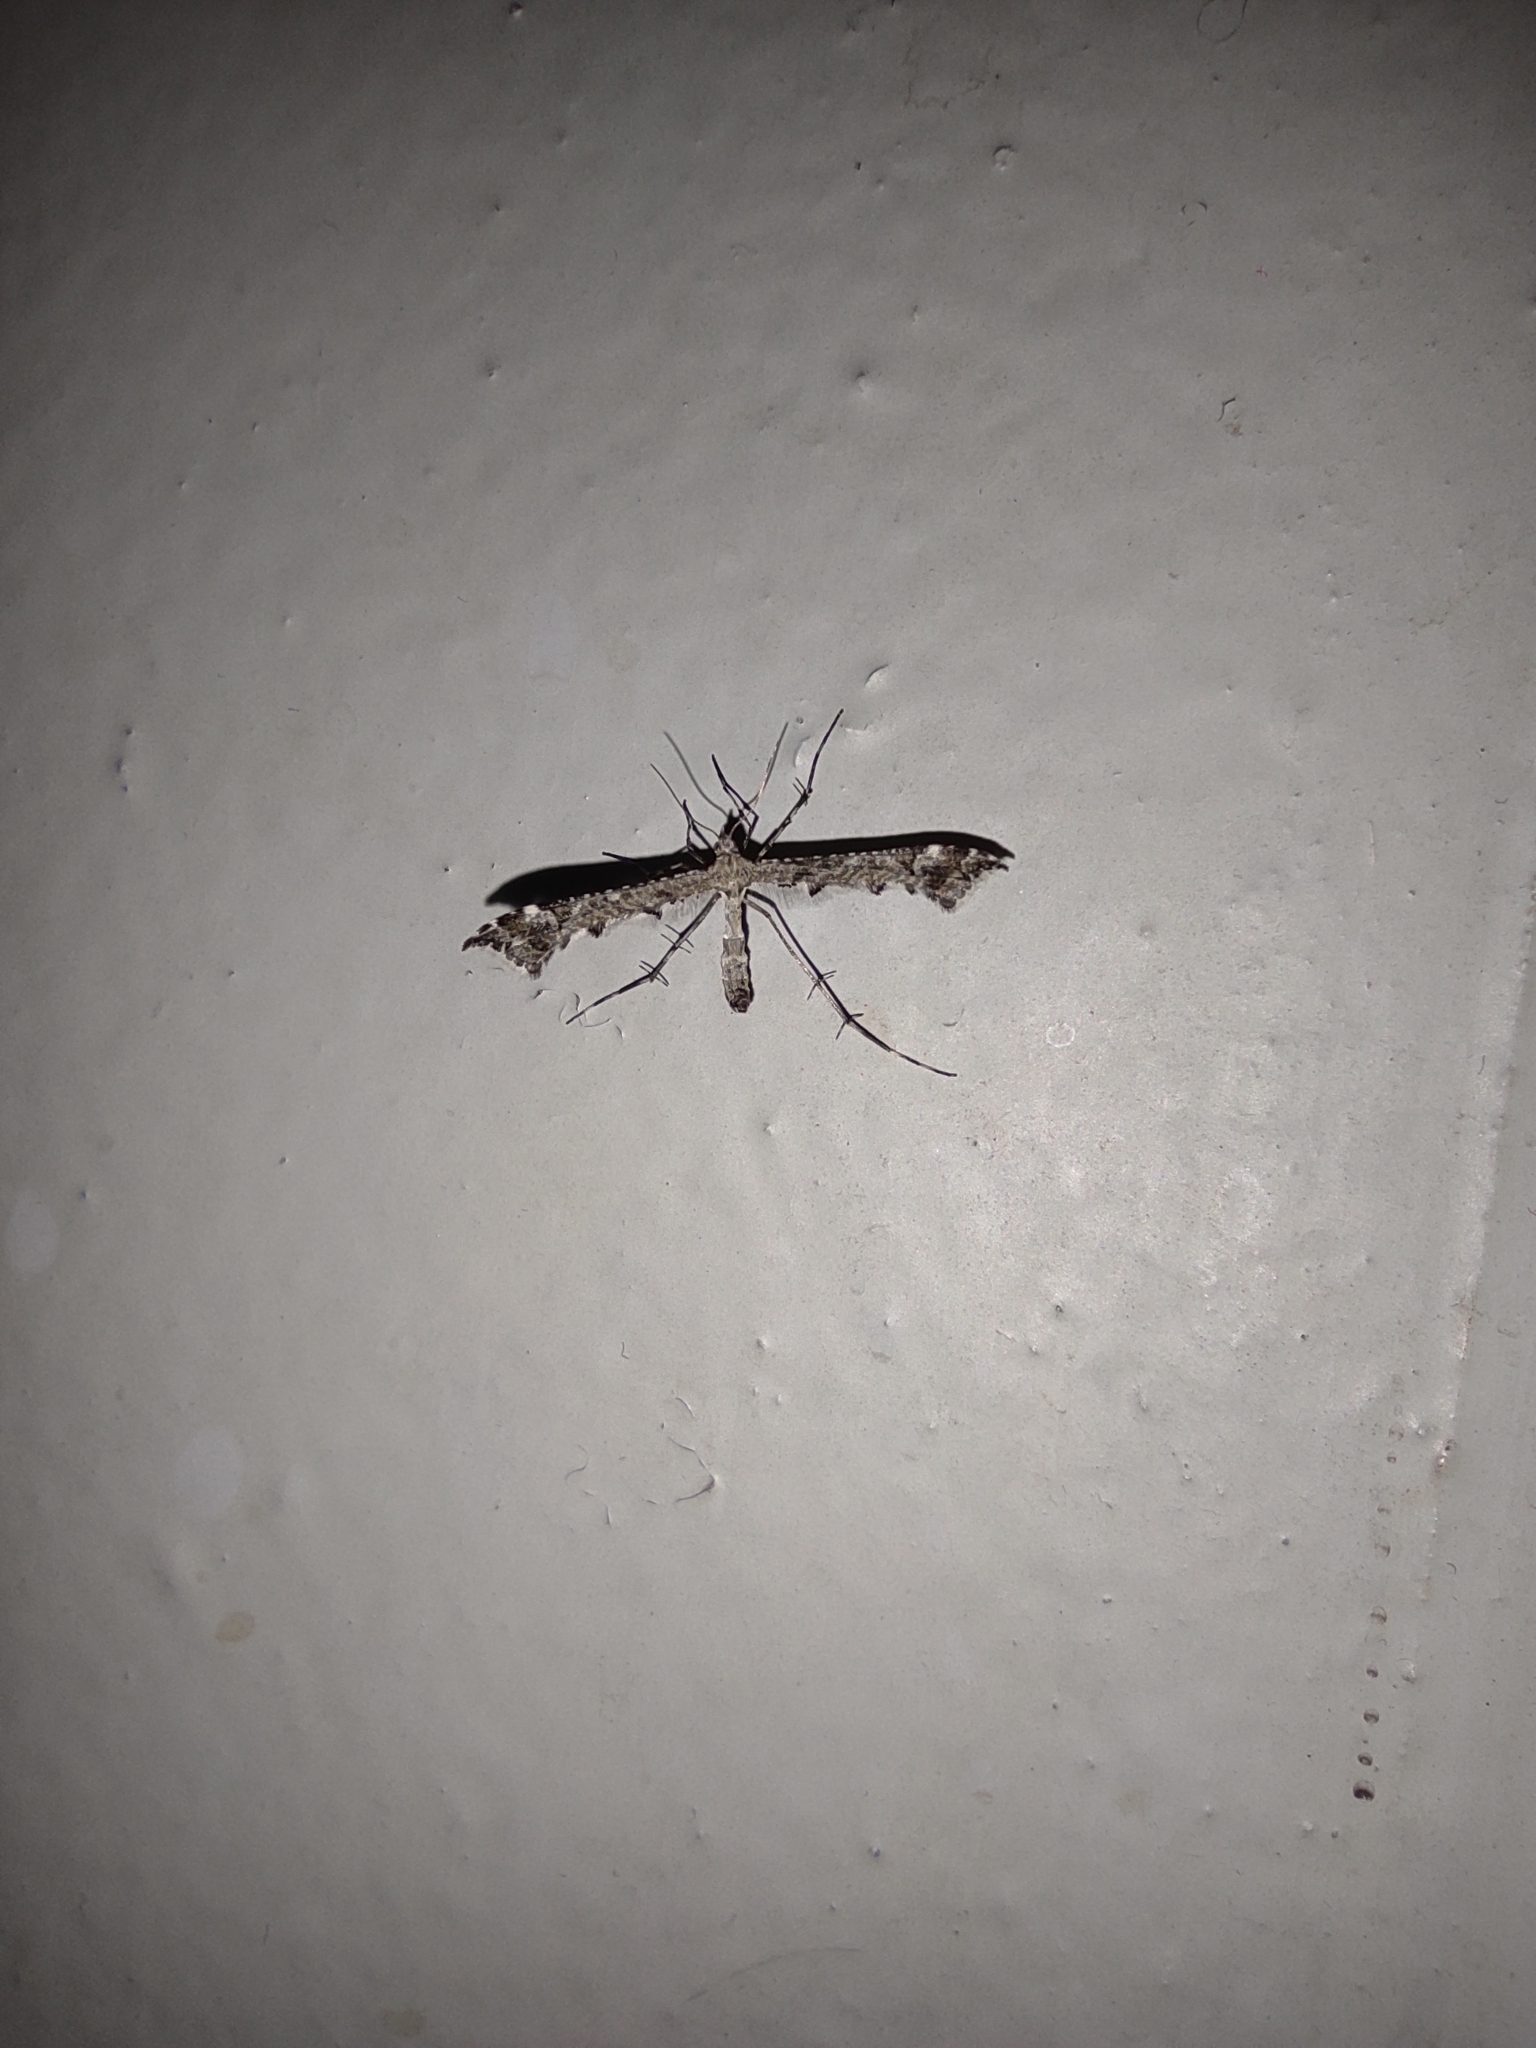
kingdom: Animalia
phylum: Arthropoda
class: Insecta
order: Lepidoptera
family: Pterophoridae
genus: Amblyptilia
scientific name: Amblyptilia punctidactyla
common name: Brindled plume
